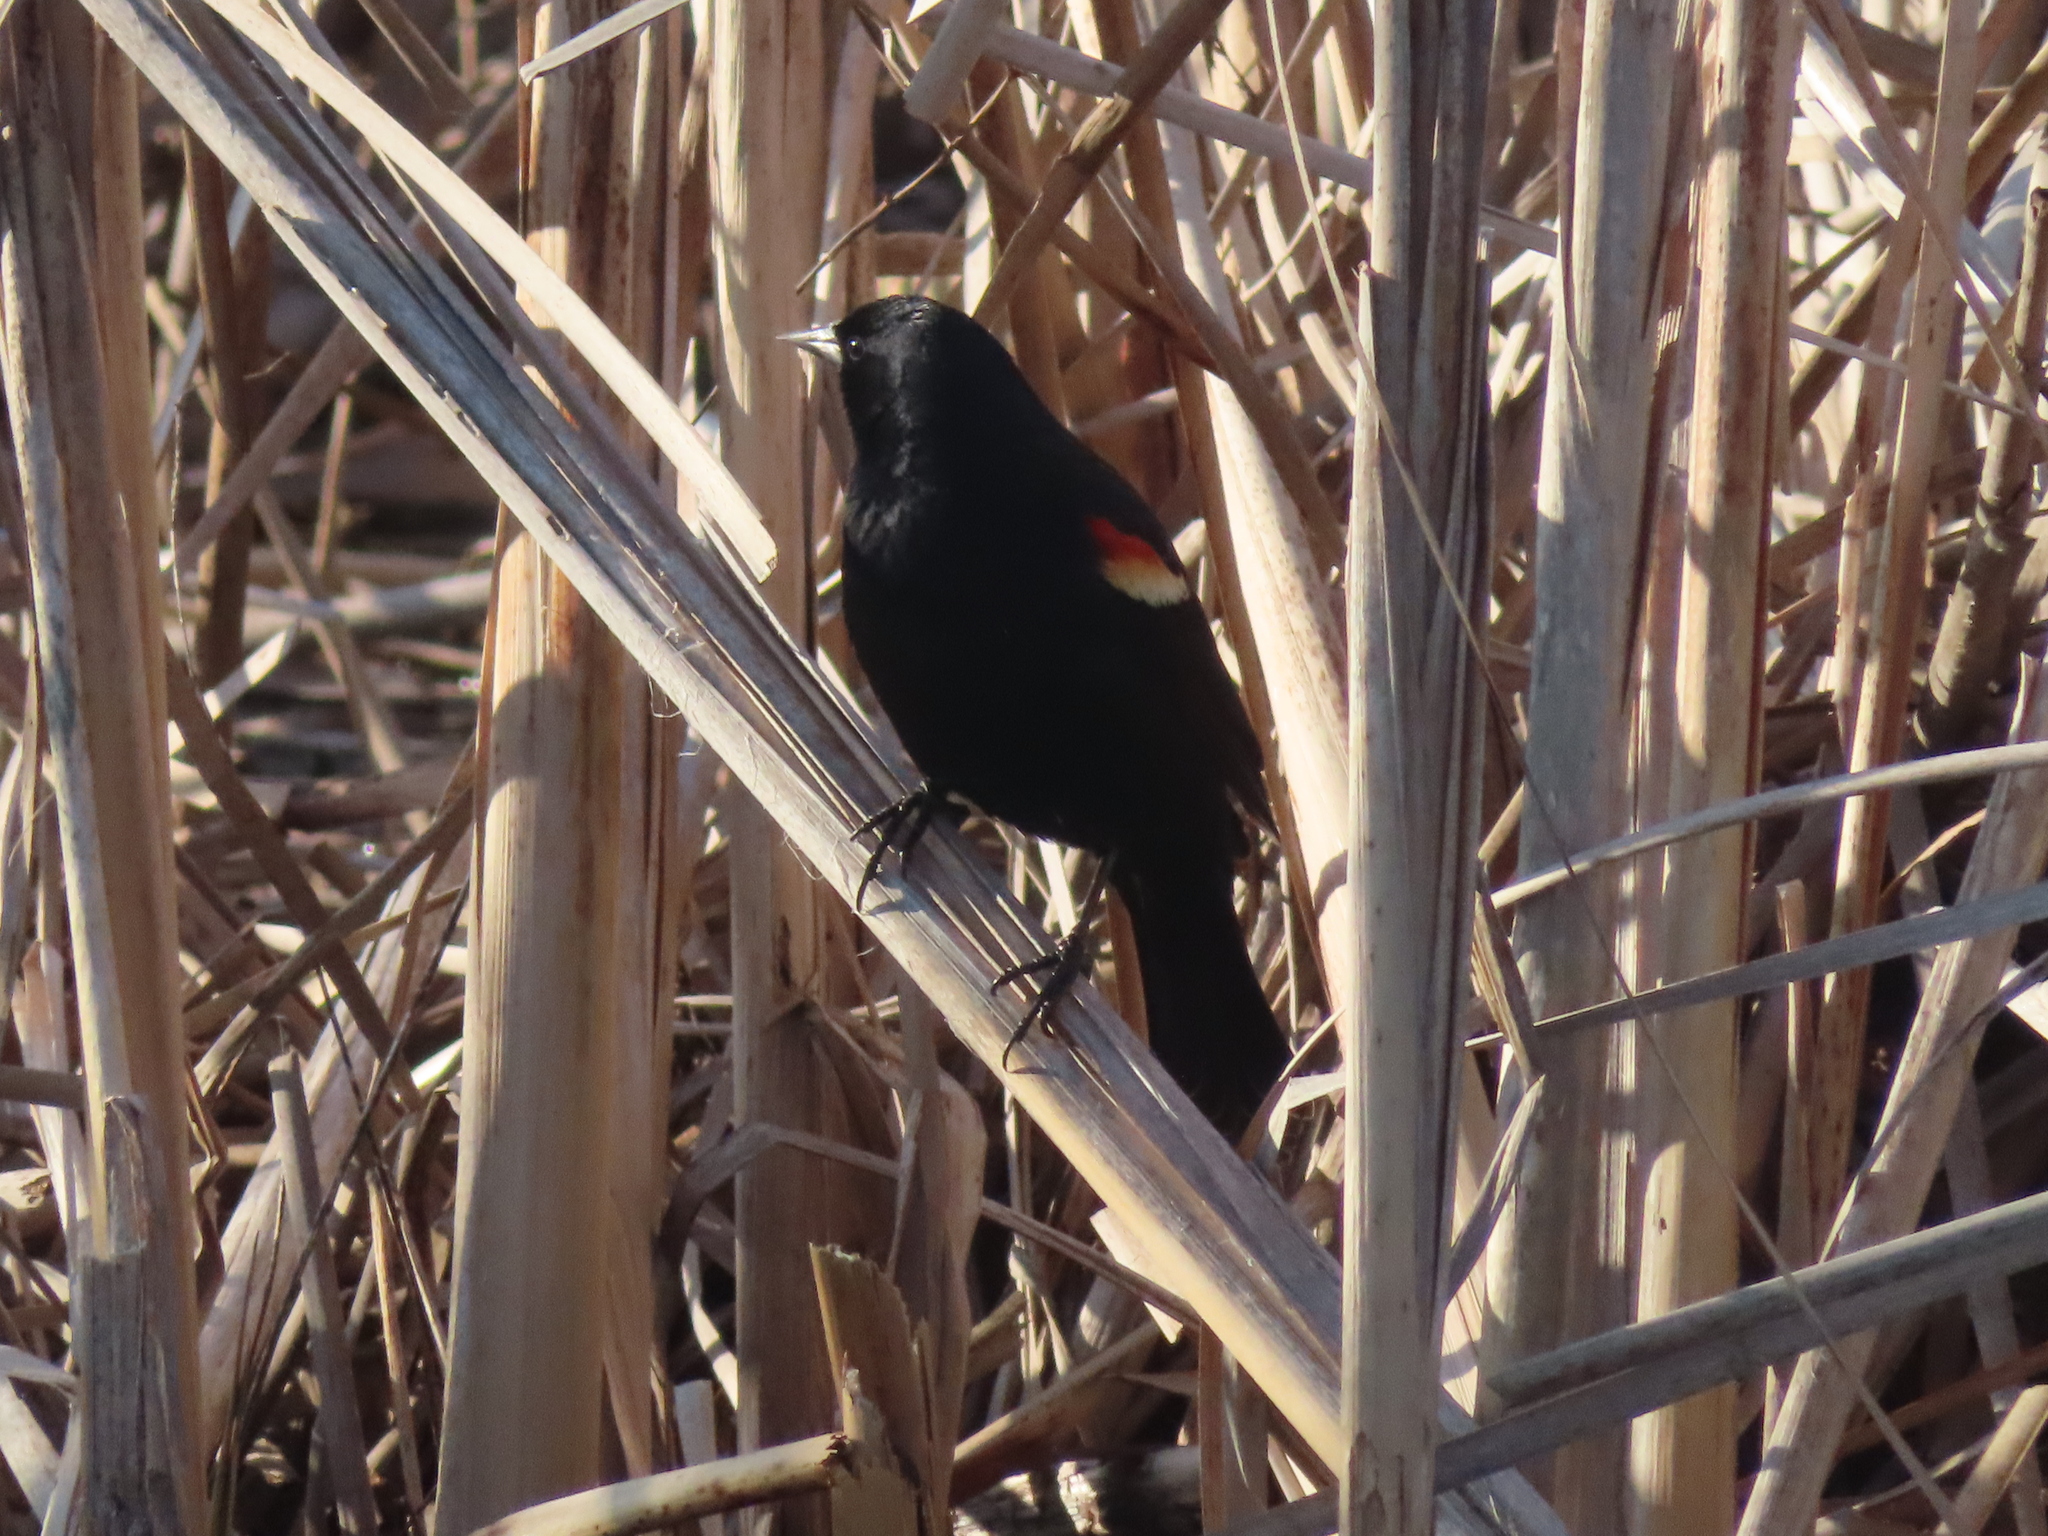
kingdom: Animalia
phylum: Chordata
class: Aves
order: Passeriformes
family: Icteridae
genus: Agelaius
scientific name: Agelaius phoeniceus
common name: Red-winged blackbird
